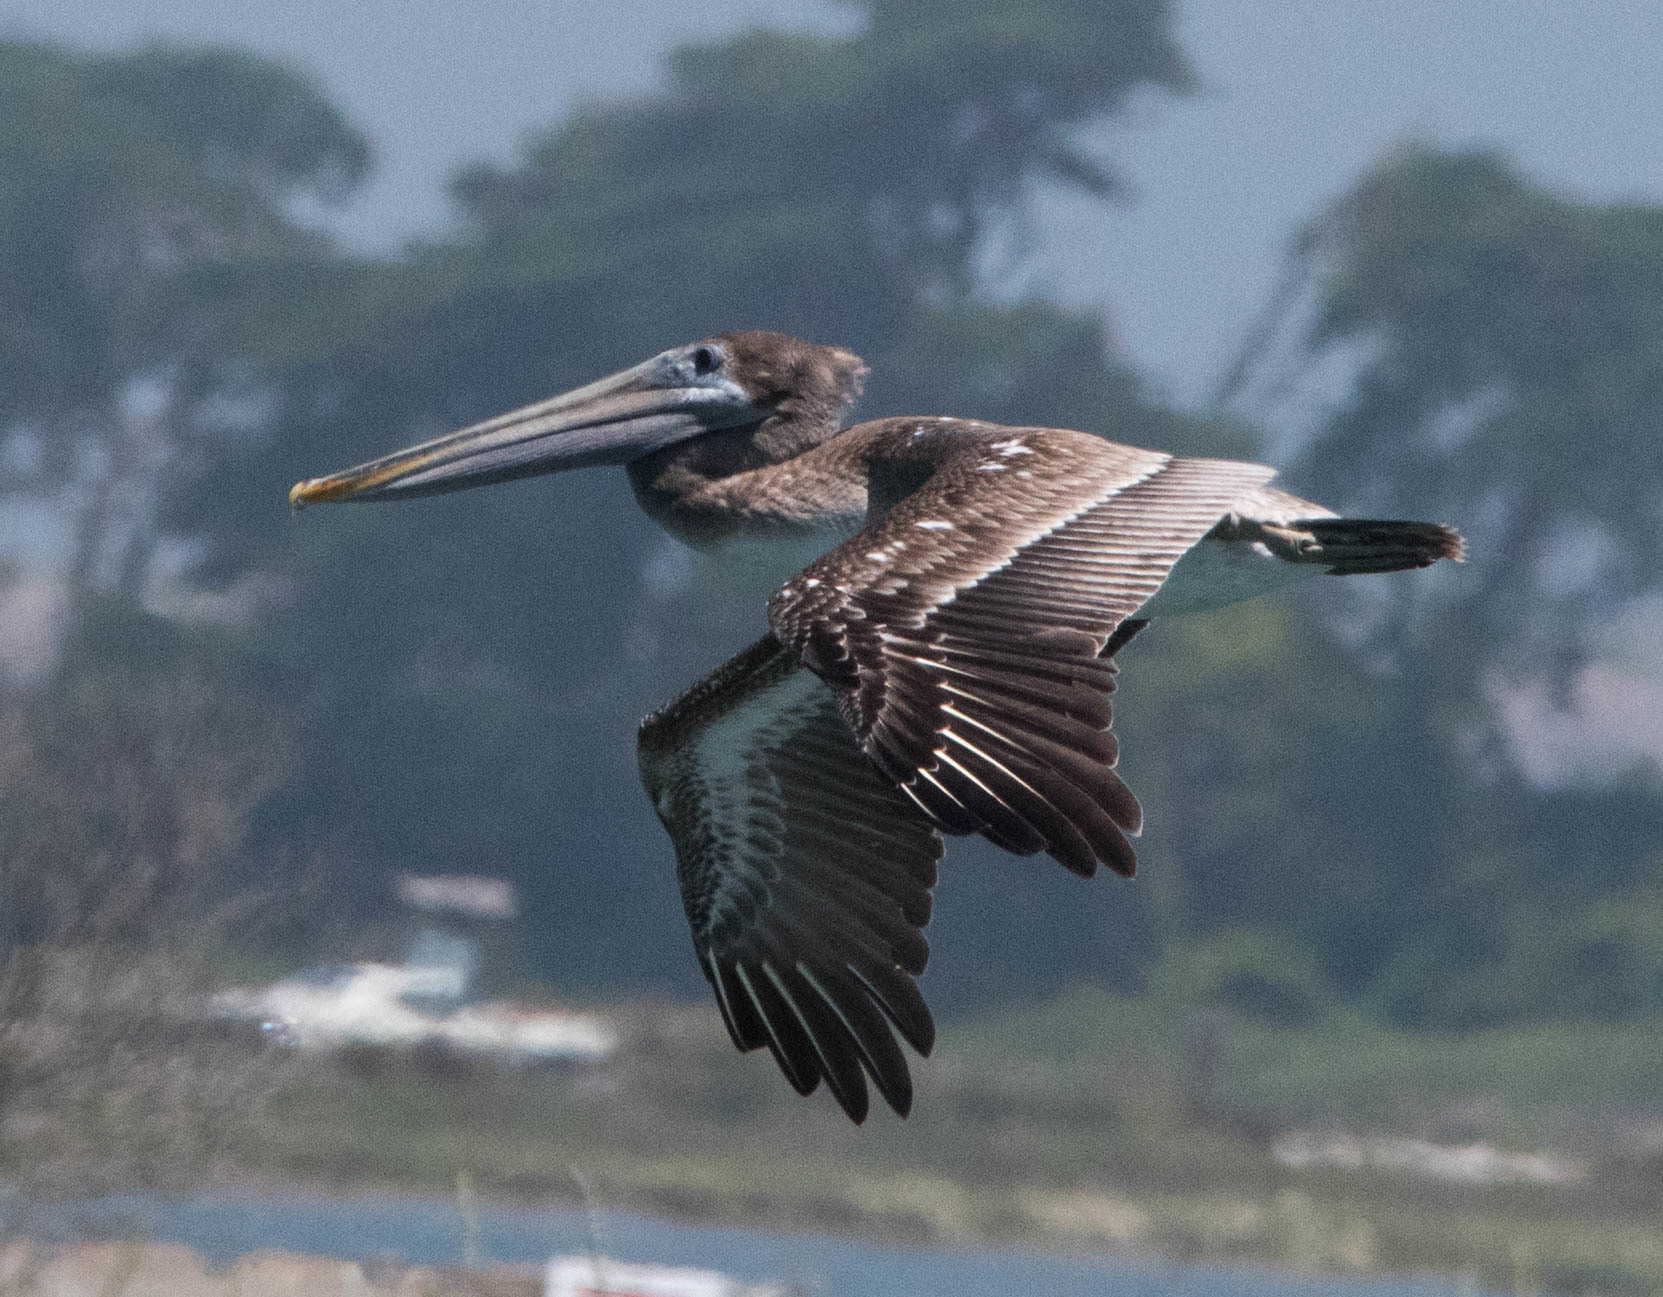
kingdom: Animalia
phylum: Chordata
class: Aves
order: Pelecaniformes
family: Pelecanidae
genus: Pelecanus
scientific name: Pelecanus occidentalis
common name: Brown pelican
